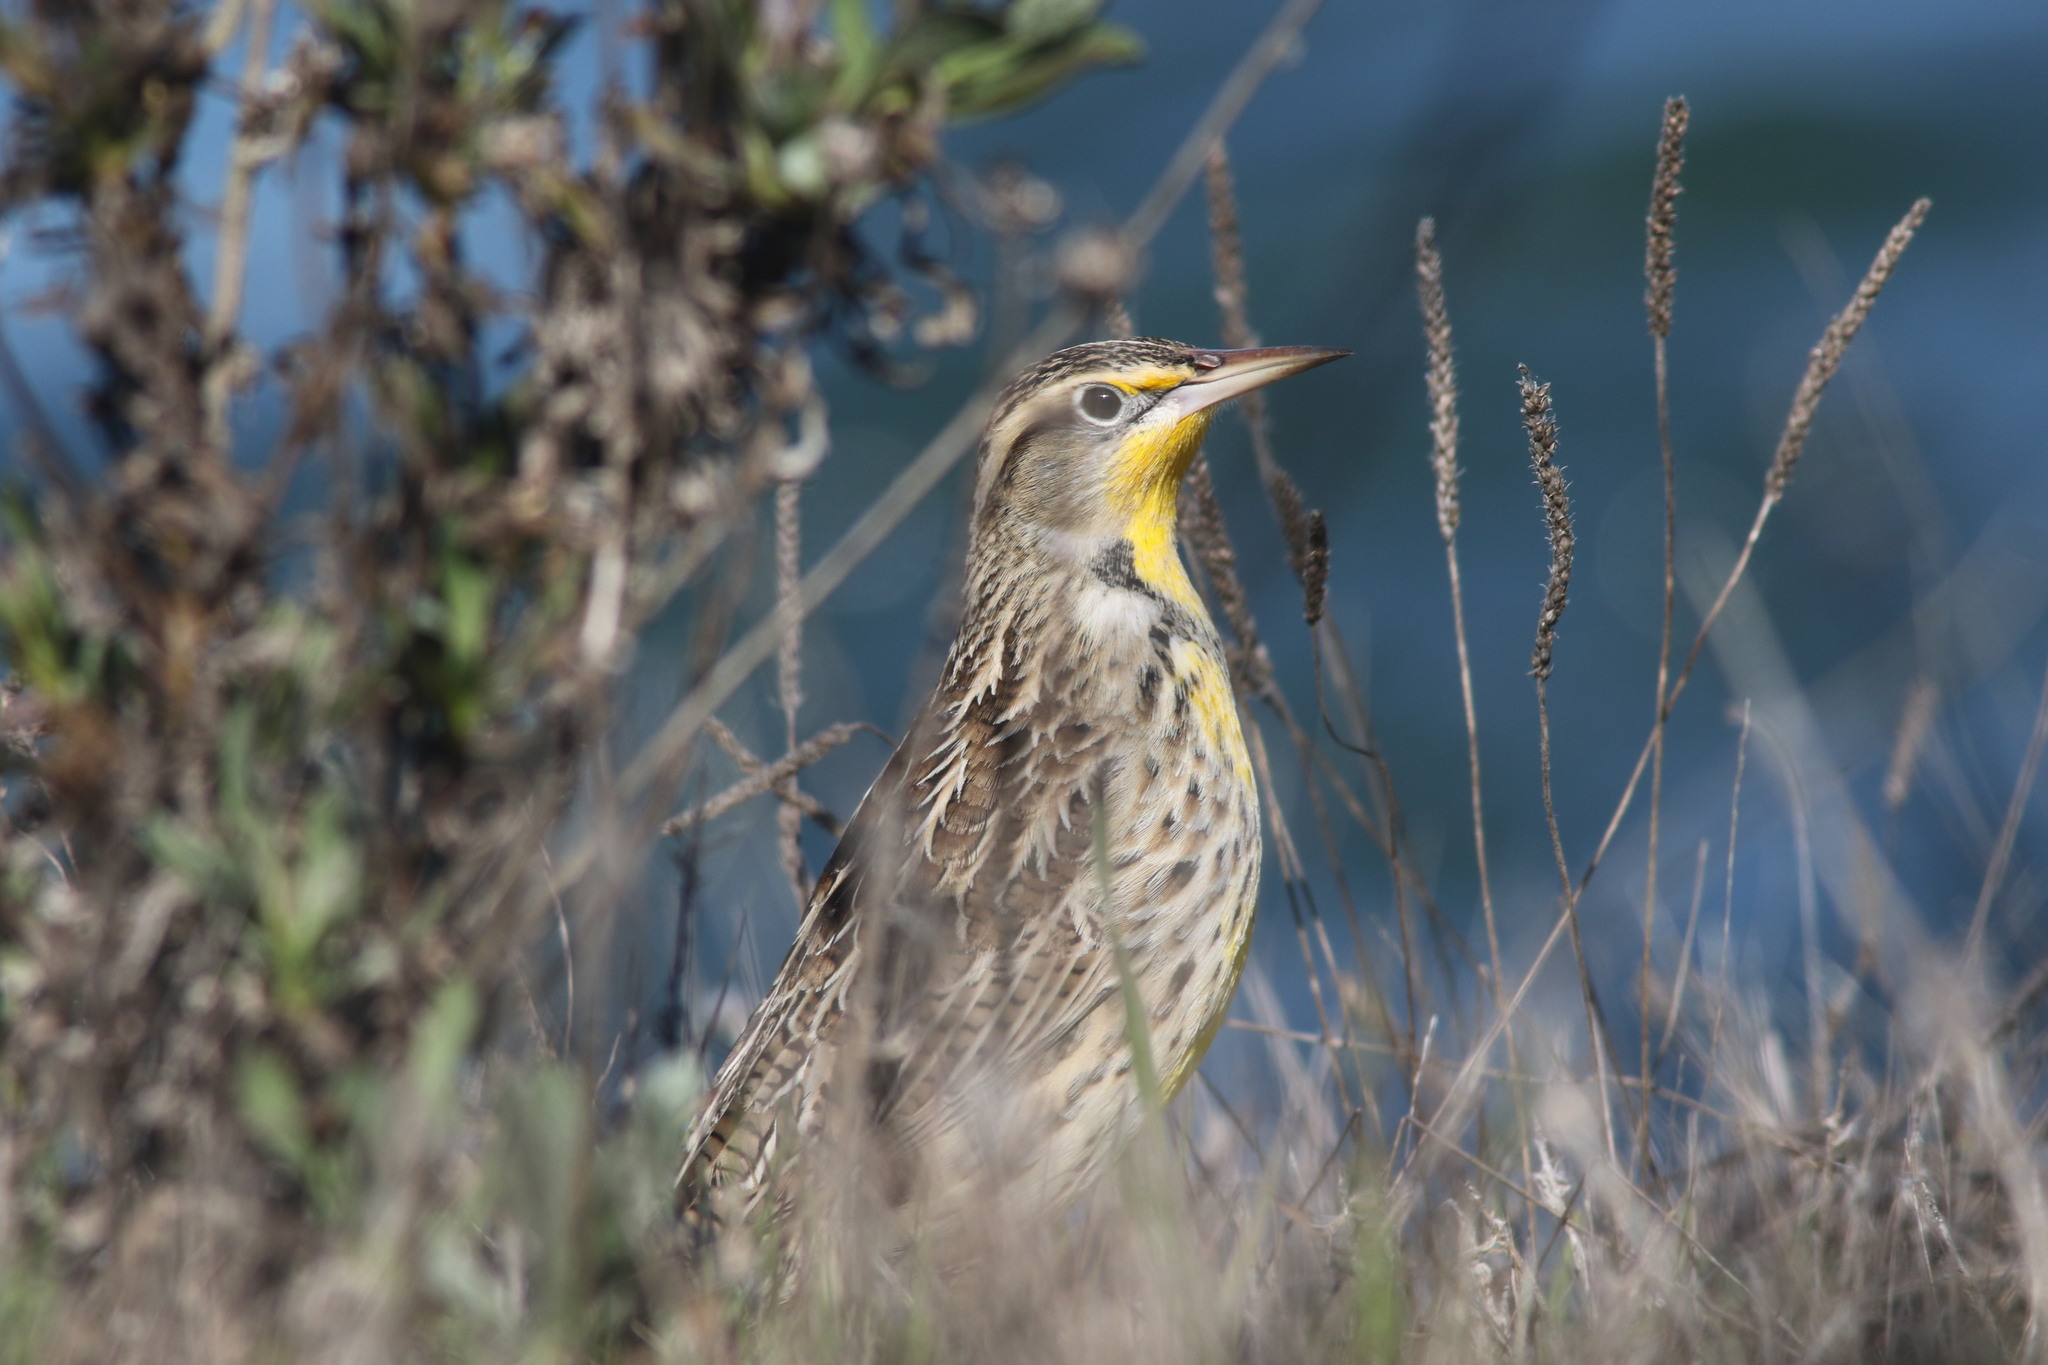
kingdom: Animalia
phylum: Chordata
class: Aves
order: Passeriformes
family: Icteridae
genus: Sturnella
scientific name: Sturnella neglecta
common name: Western meadowlark
